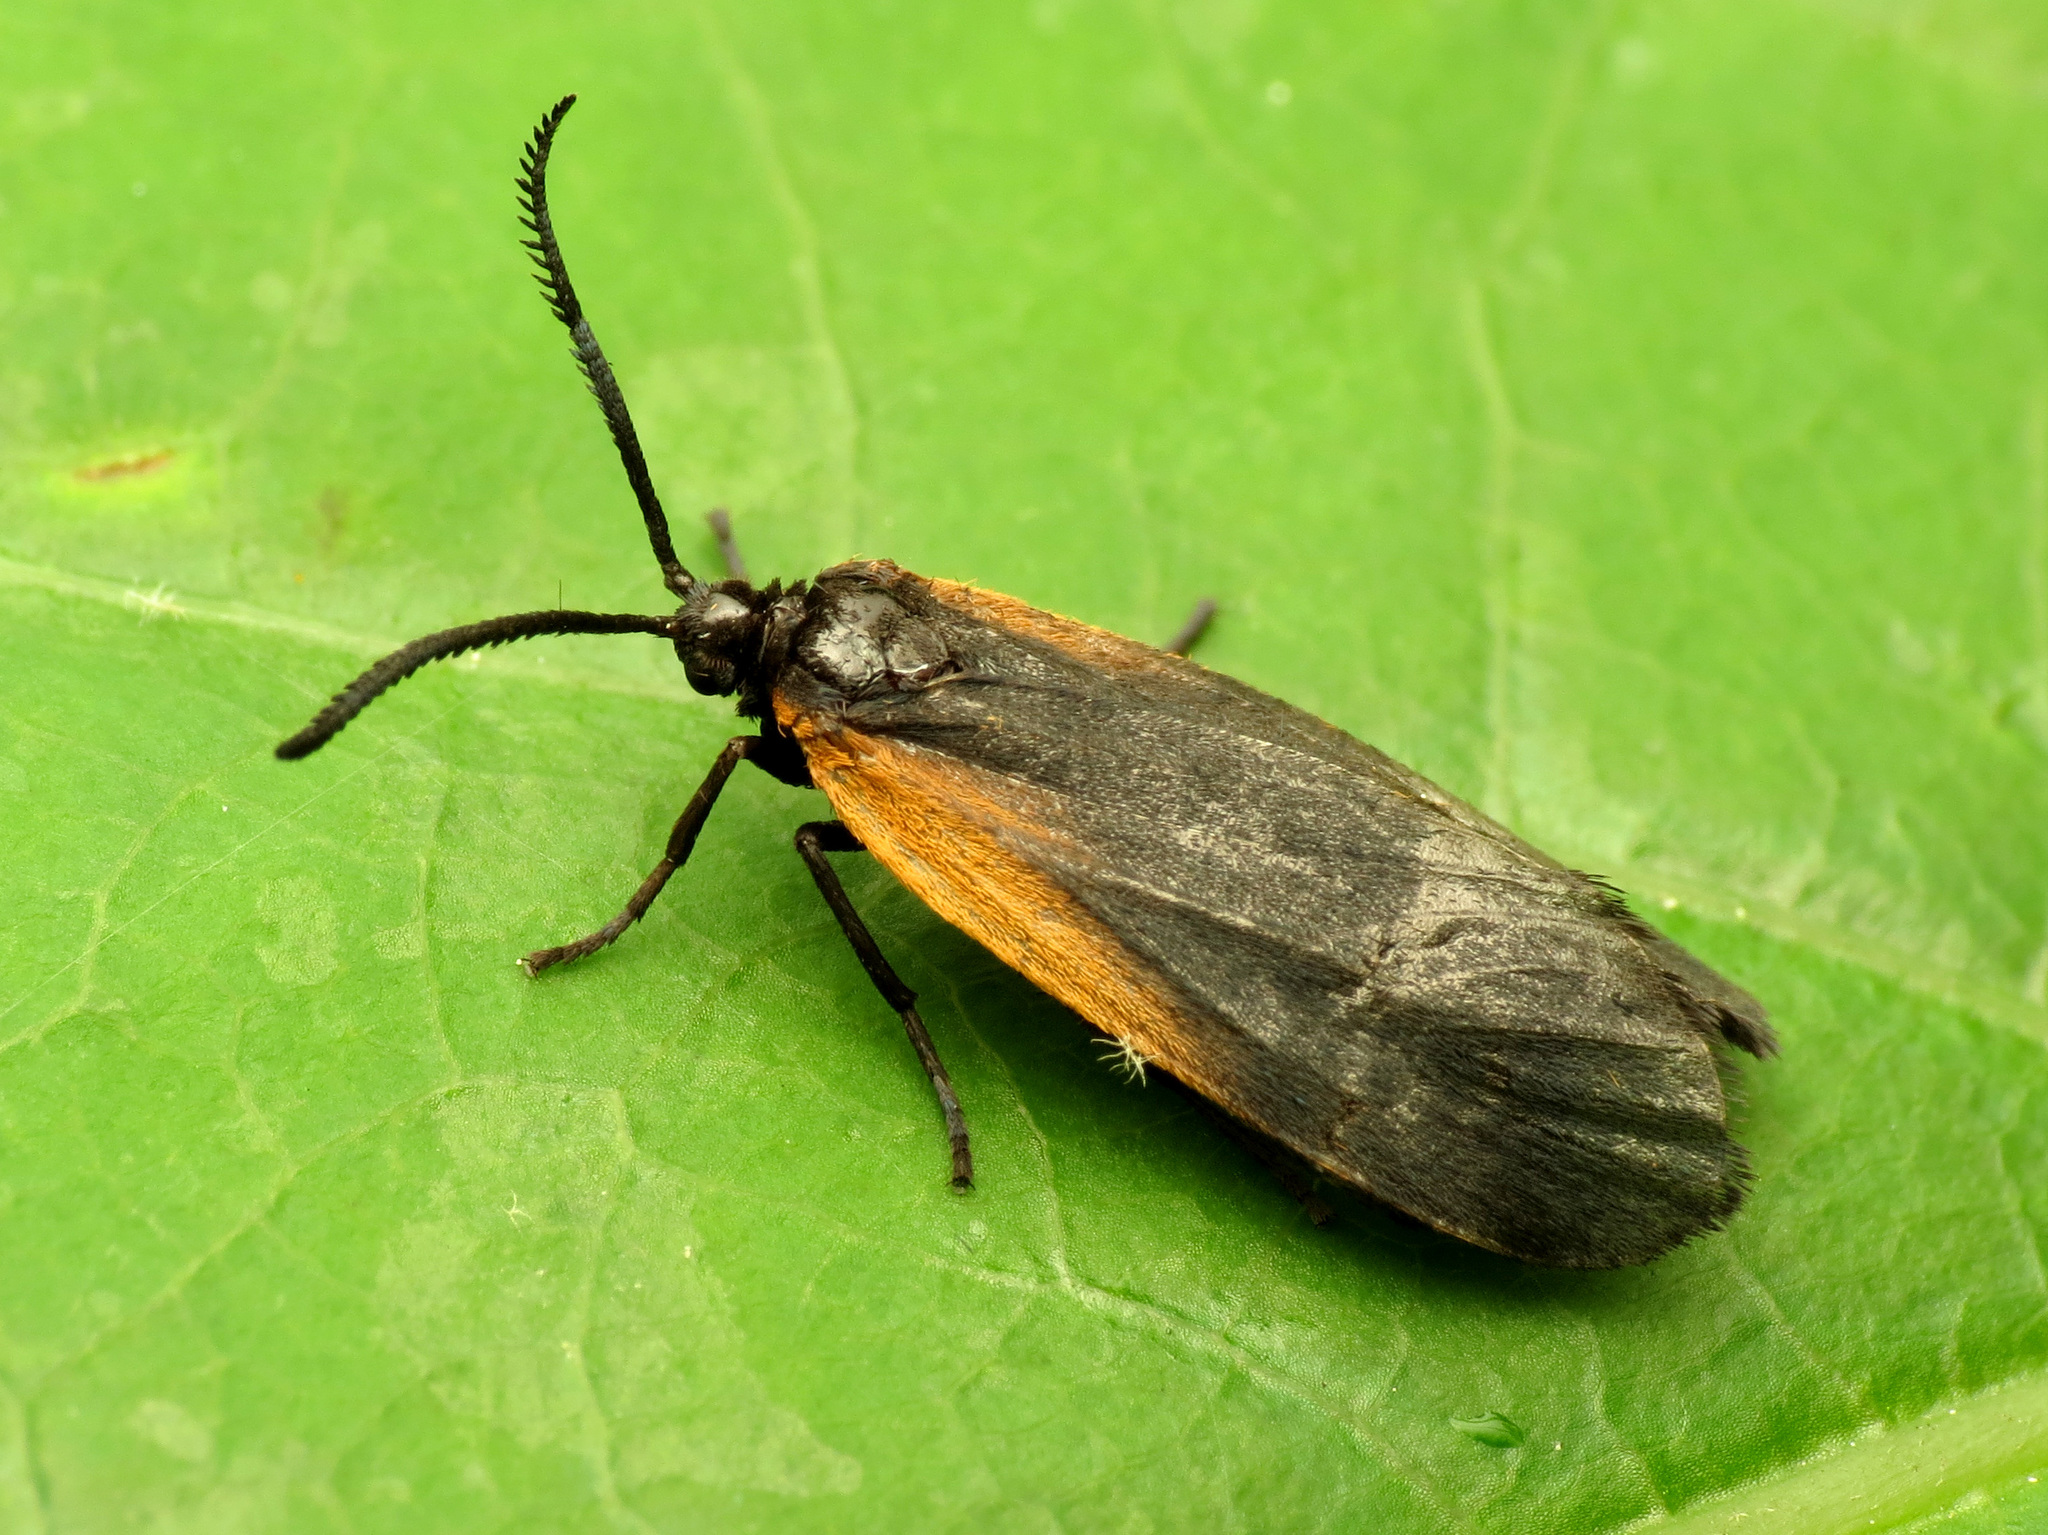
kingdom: Animalia
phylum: Arthropoda
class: Insecta
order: Lepidoptera
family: Zygaenidae
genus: Malthaca
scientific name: Malthaca dimidiata
